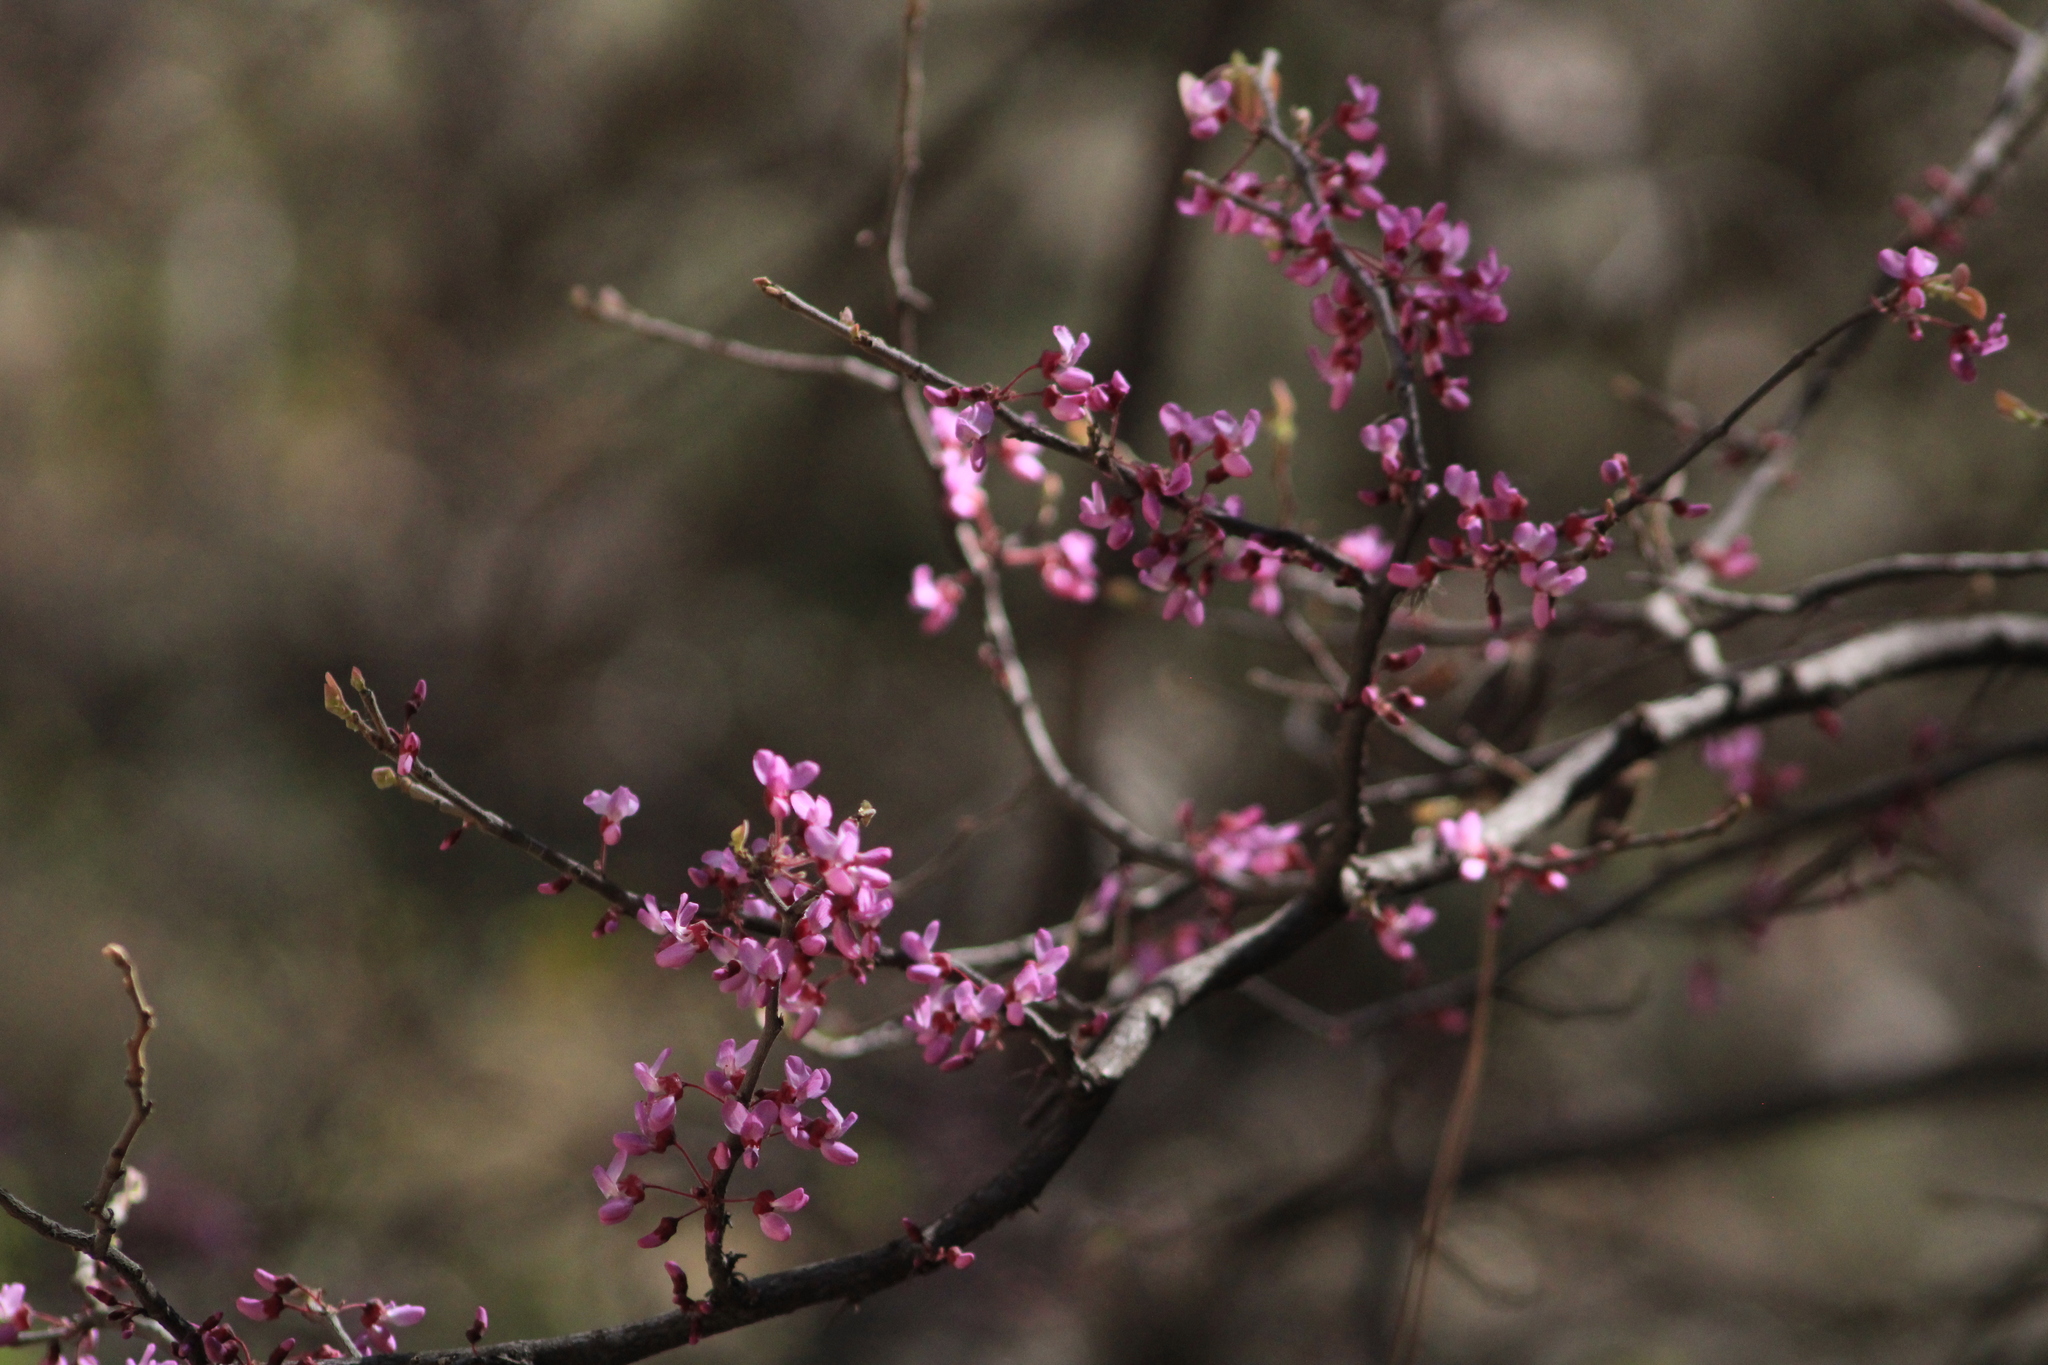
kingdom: Plantae
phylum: Tracheophyta
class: Magnoliopsida
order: Fabales
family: Fabaceae
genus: Cercis
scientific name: Cercis canadensis
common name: Eastern redbud
